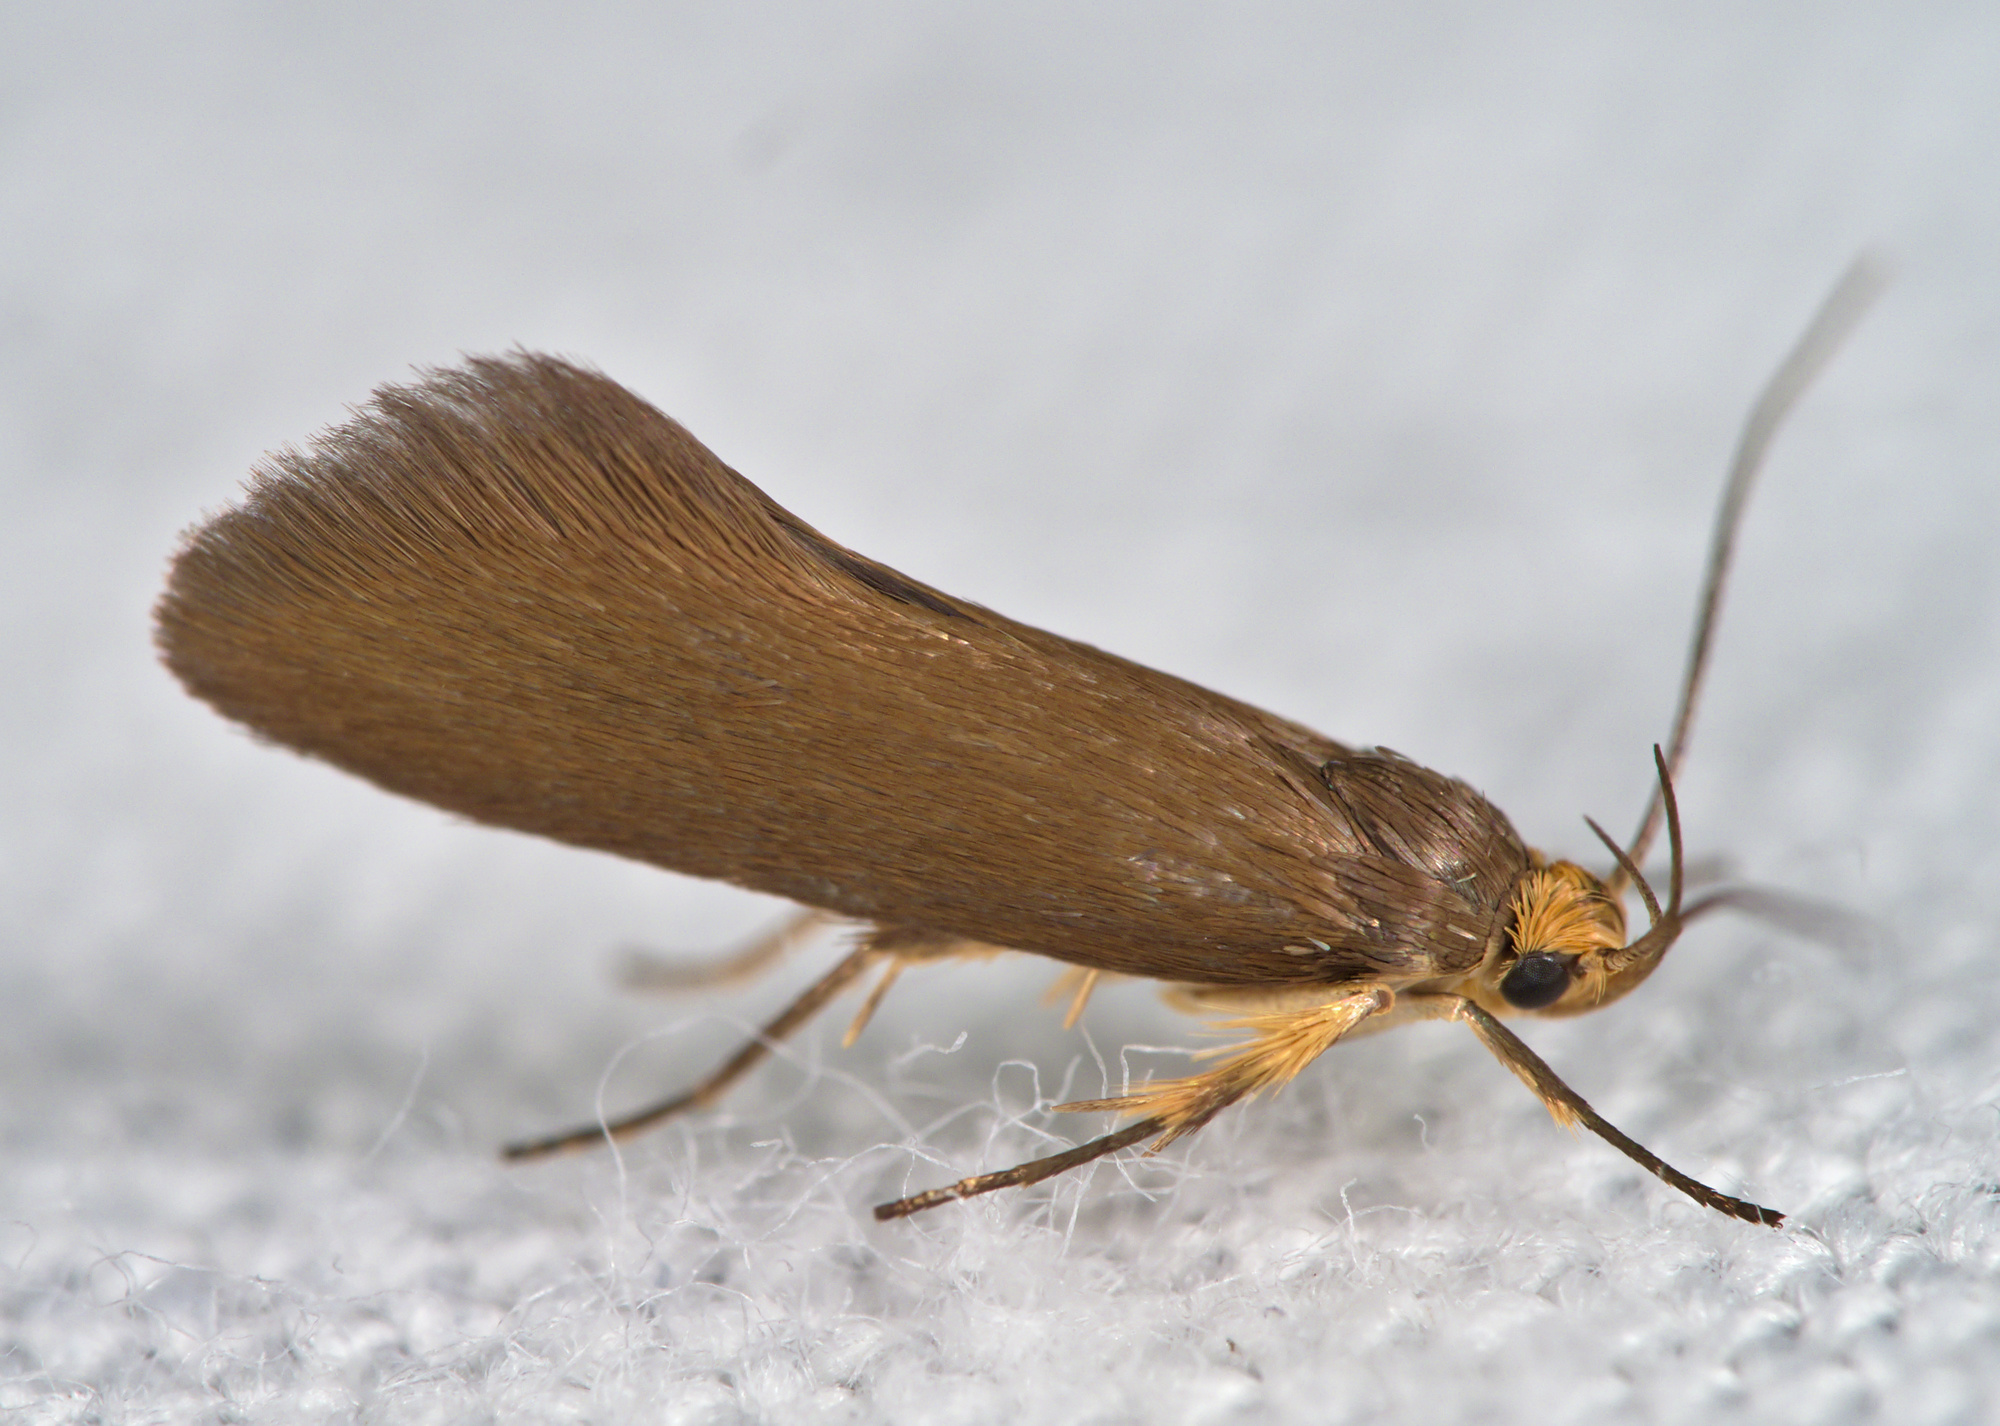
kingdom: Animalia
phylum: Arthropoda
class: Insecta
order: Lepidoptera
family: Oecophoridae
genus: Borkhausenia
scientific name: Borkhausenia Crassa unitella
